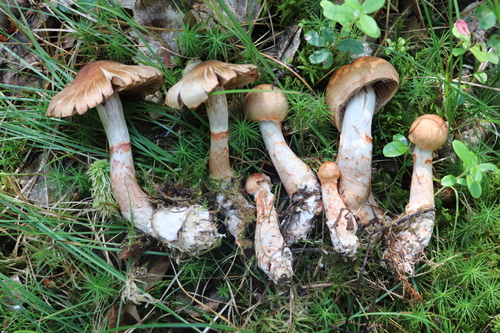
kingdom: Fungi
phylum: Basidiomycota
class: Agaricomycetes
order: Agaricales
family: Cortinariaceae
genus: Cortinarius
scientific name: Cortinarius armillatus
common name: Red banded webcap
